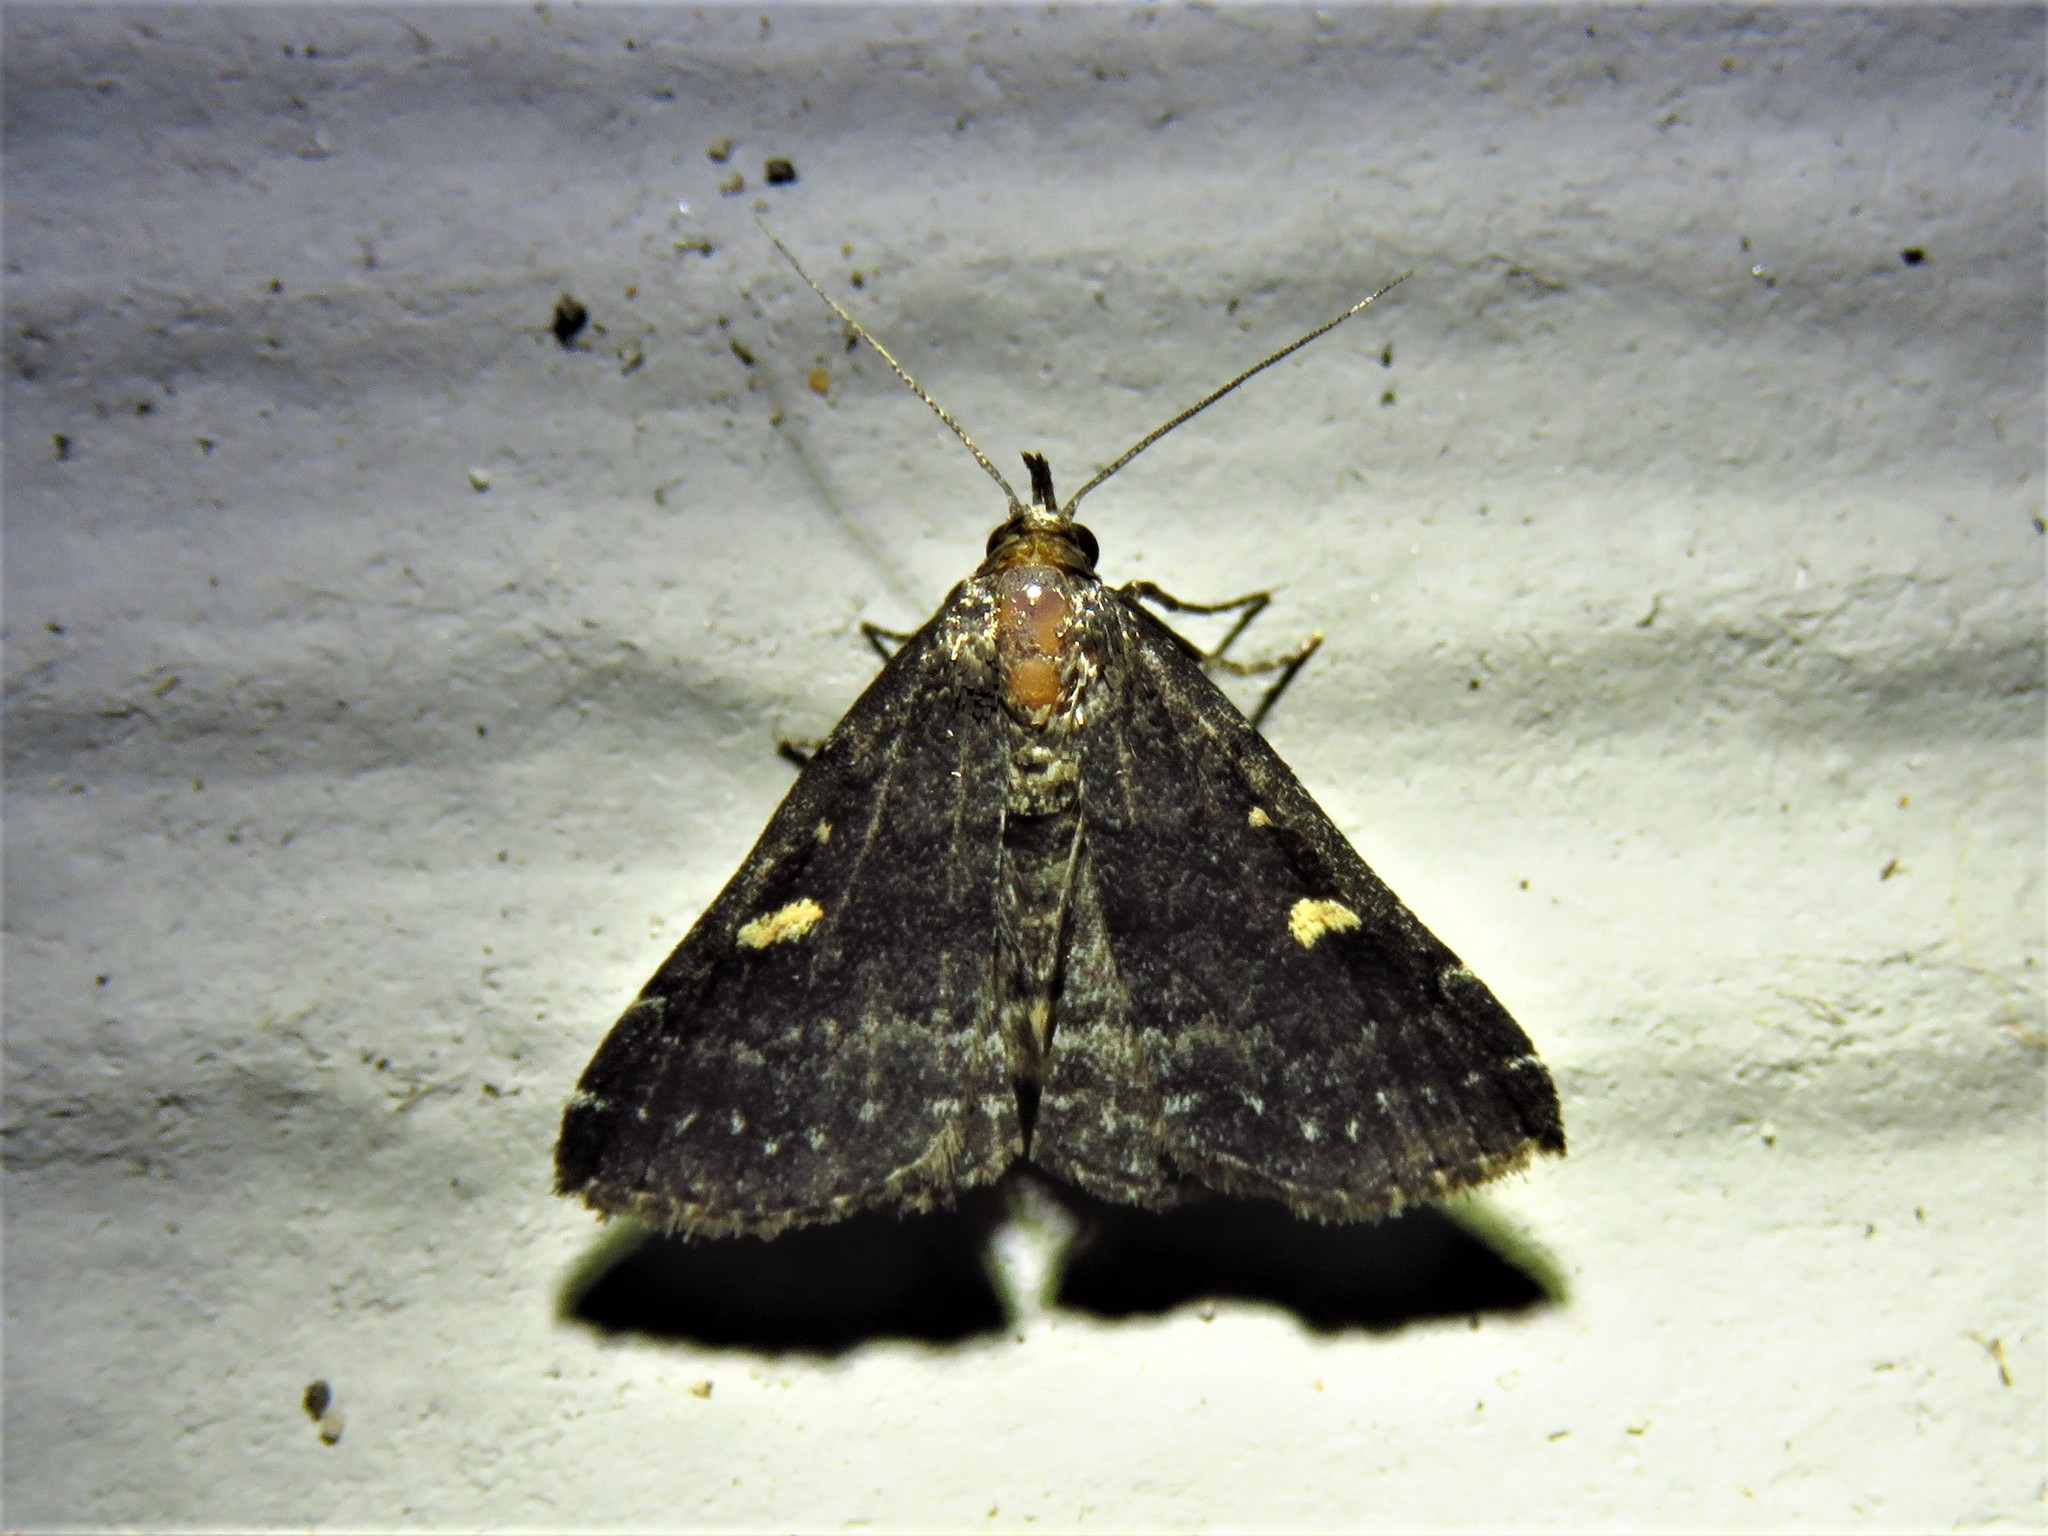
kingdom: Animalia
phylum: Arthropoda
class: Insecta
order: Lepidoptera
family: Erebidae
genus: Tetanolita
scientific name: Tetanolita mynesalis
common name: Smoky tetanolita moth
